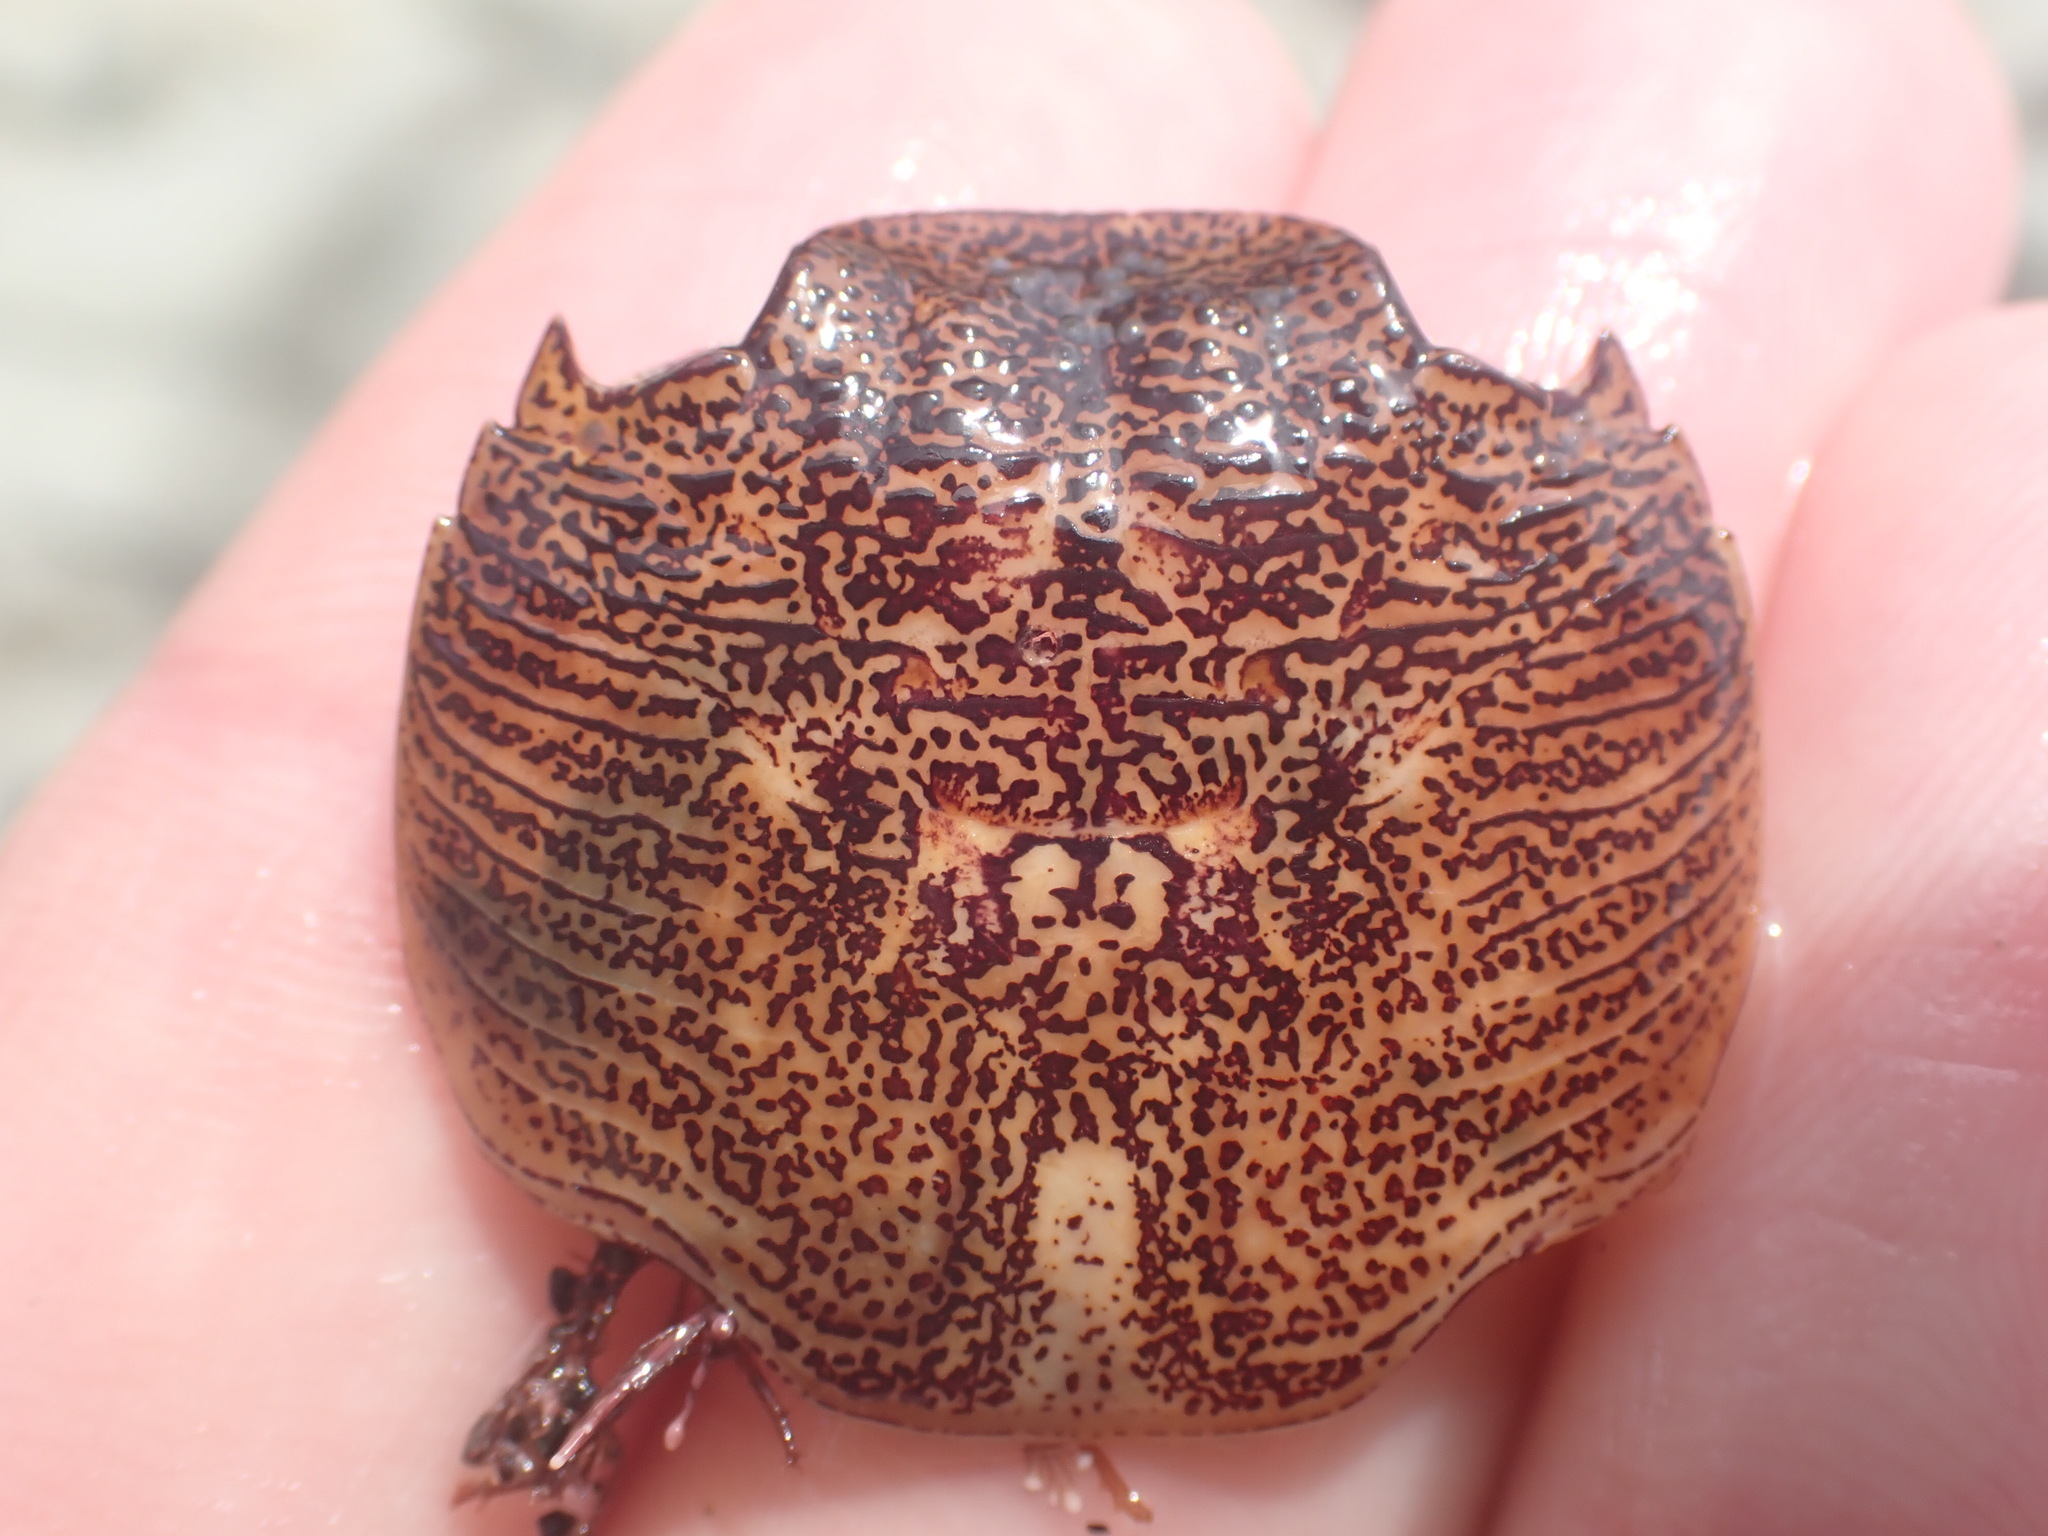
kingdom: Animalia
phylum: Arthropoda
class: Malacostraca
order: Decapoda
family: Grapsidae
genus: Leptograpsus
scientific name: Leptograpsus variegatus
